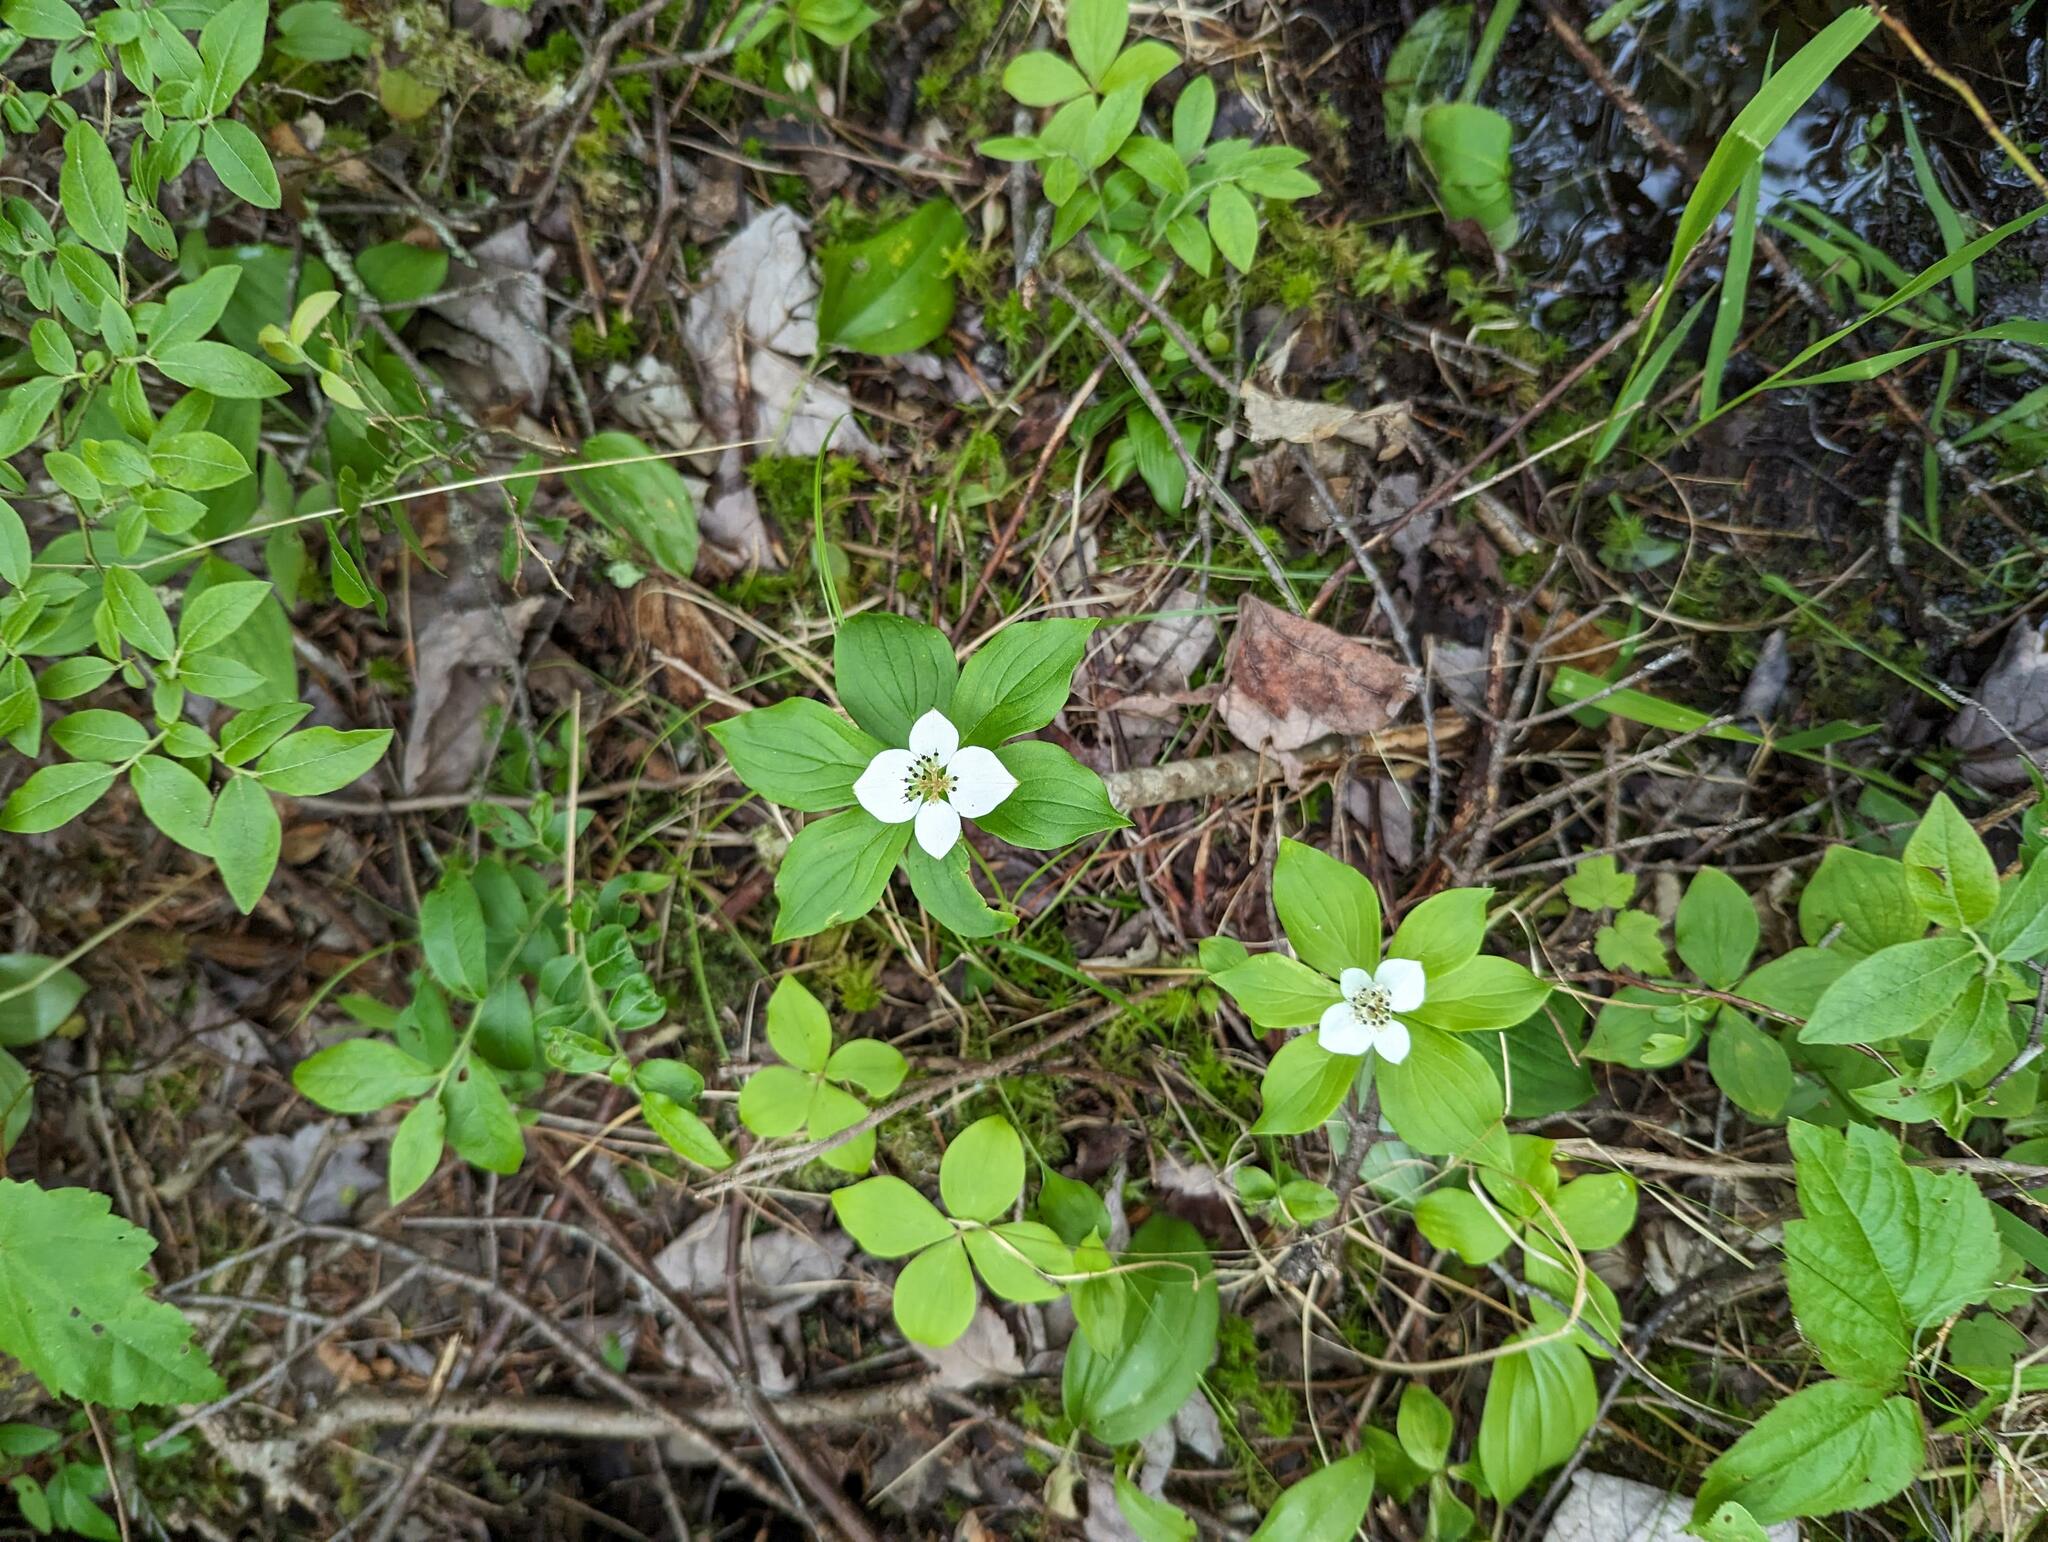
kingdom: Plantae
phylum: Tracheophyta
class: Magnoliopsida
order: Cornales
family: Cornaceae
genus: Cornus
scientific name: Cornus canadensis
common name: Creeping dogwood
